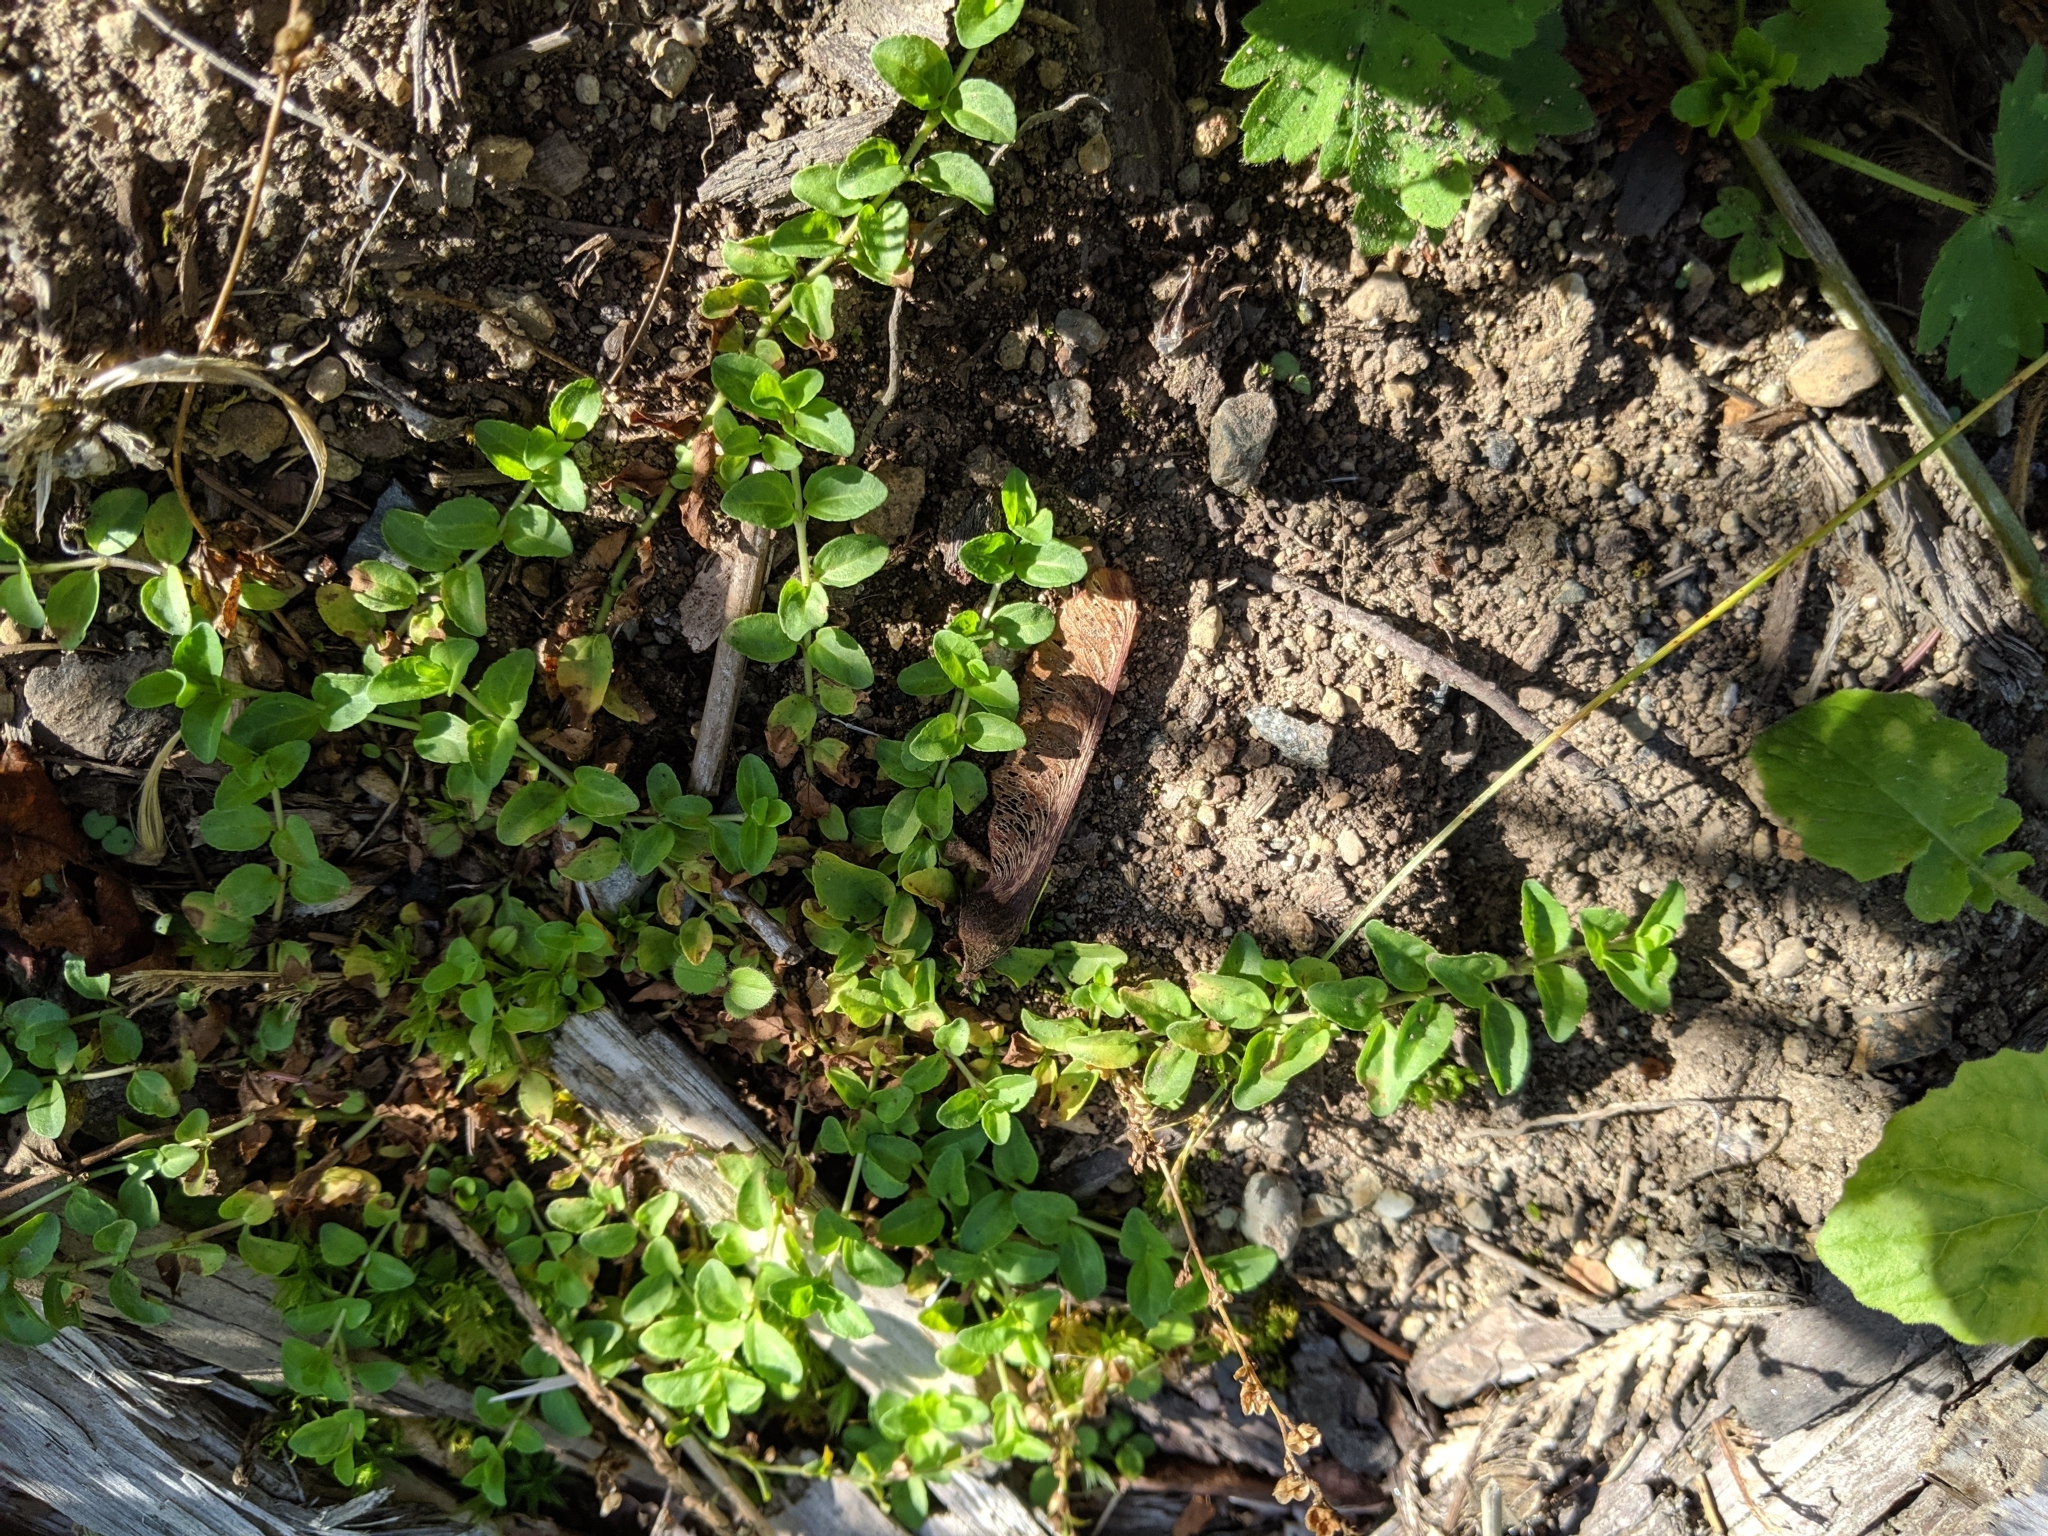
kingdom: Plantae
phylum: Tracheophyta
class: Magnoliopsida
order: Lamiales
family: Plantaginaceae
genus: Veronica
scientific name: Veronica serpyllifolia
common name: Thyme-leaved speedwell
